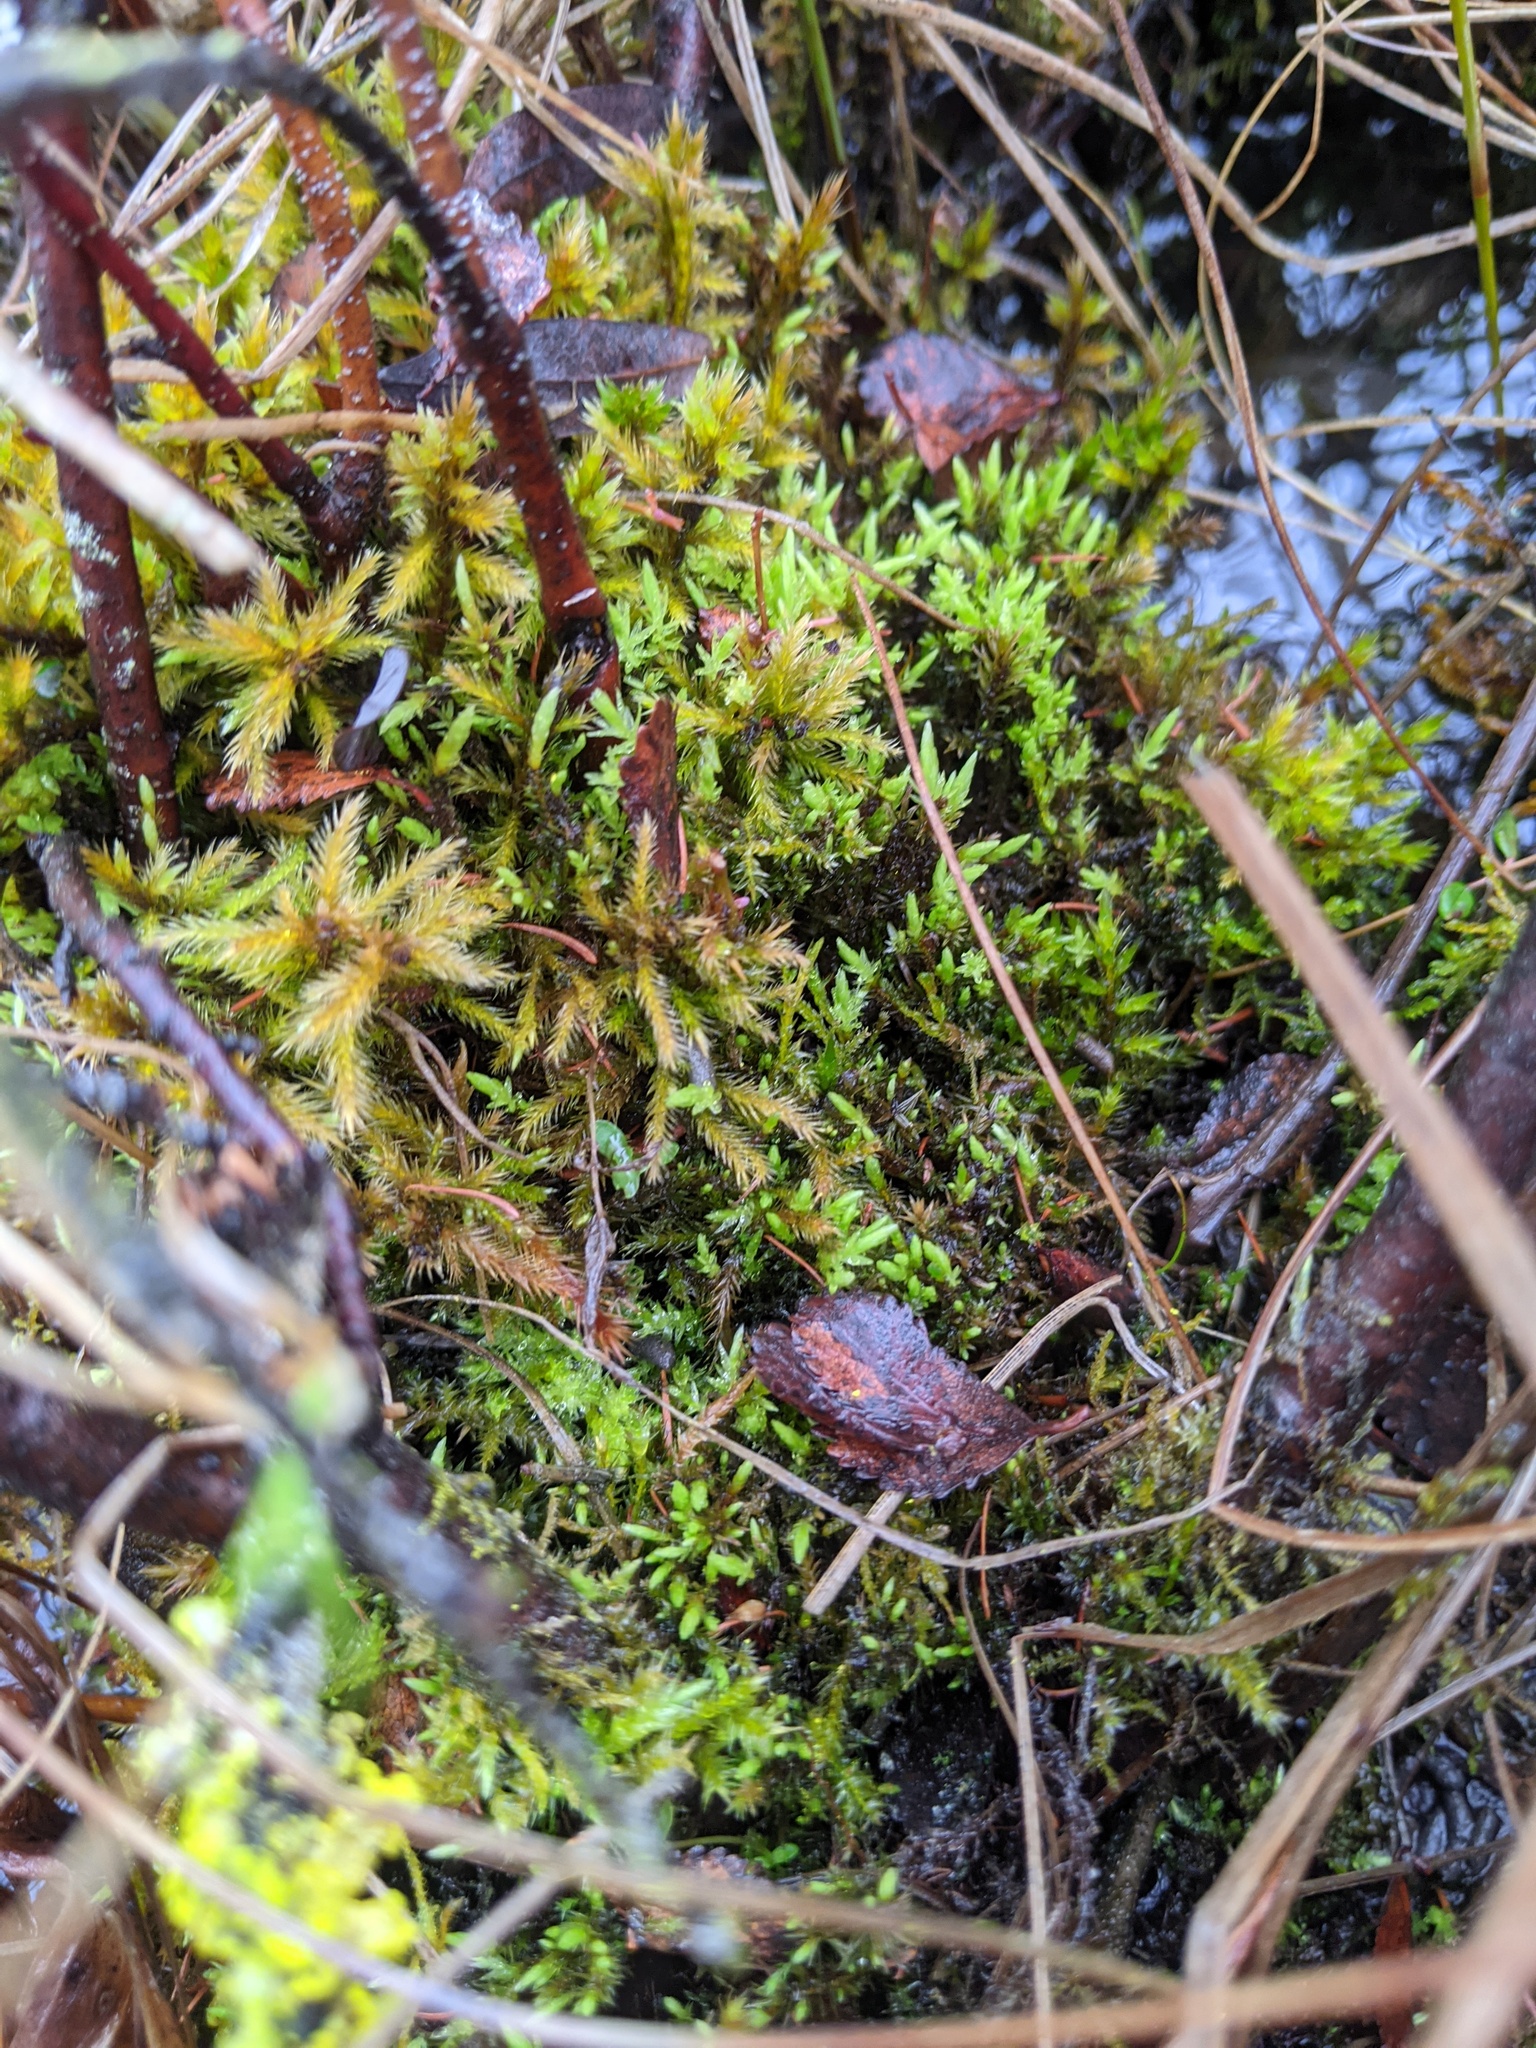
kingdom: Plantae
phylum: Bryophyta
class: Bryopsida
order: Hypnales
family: Amblystegiaceae
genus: Tomentypnum
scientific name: Tomentypnum nitens
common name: Golden fuzzy fen moss
